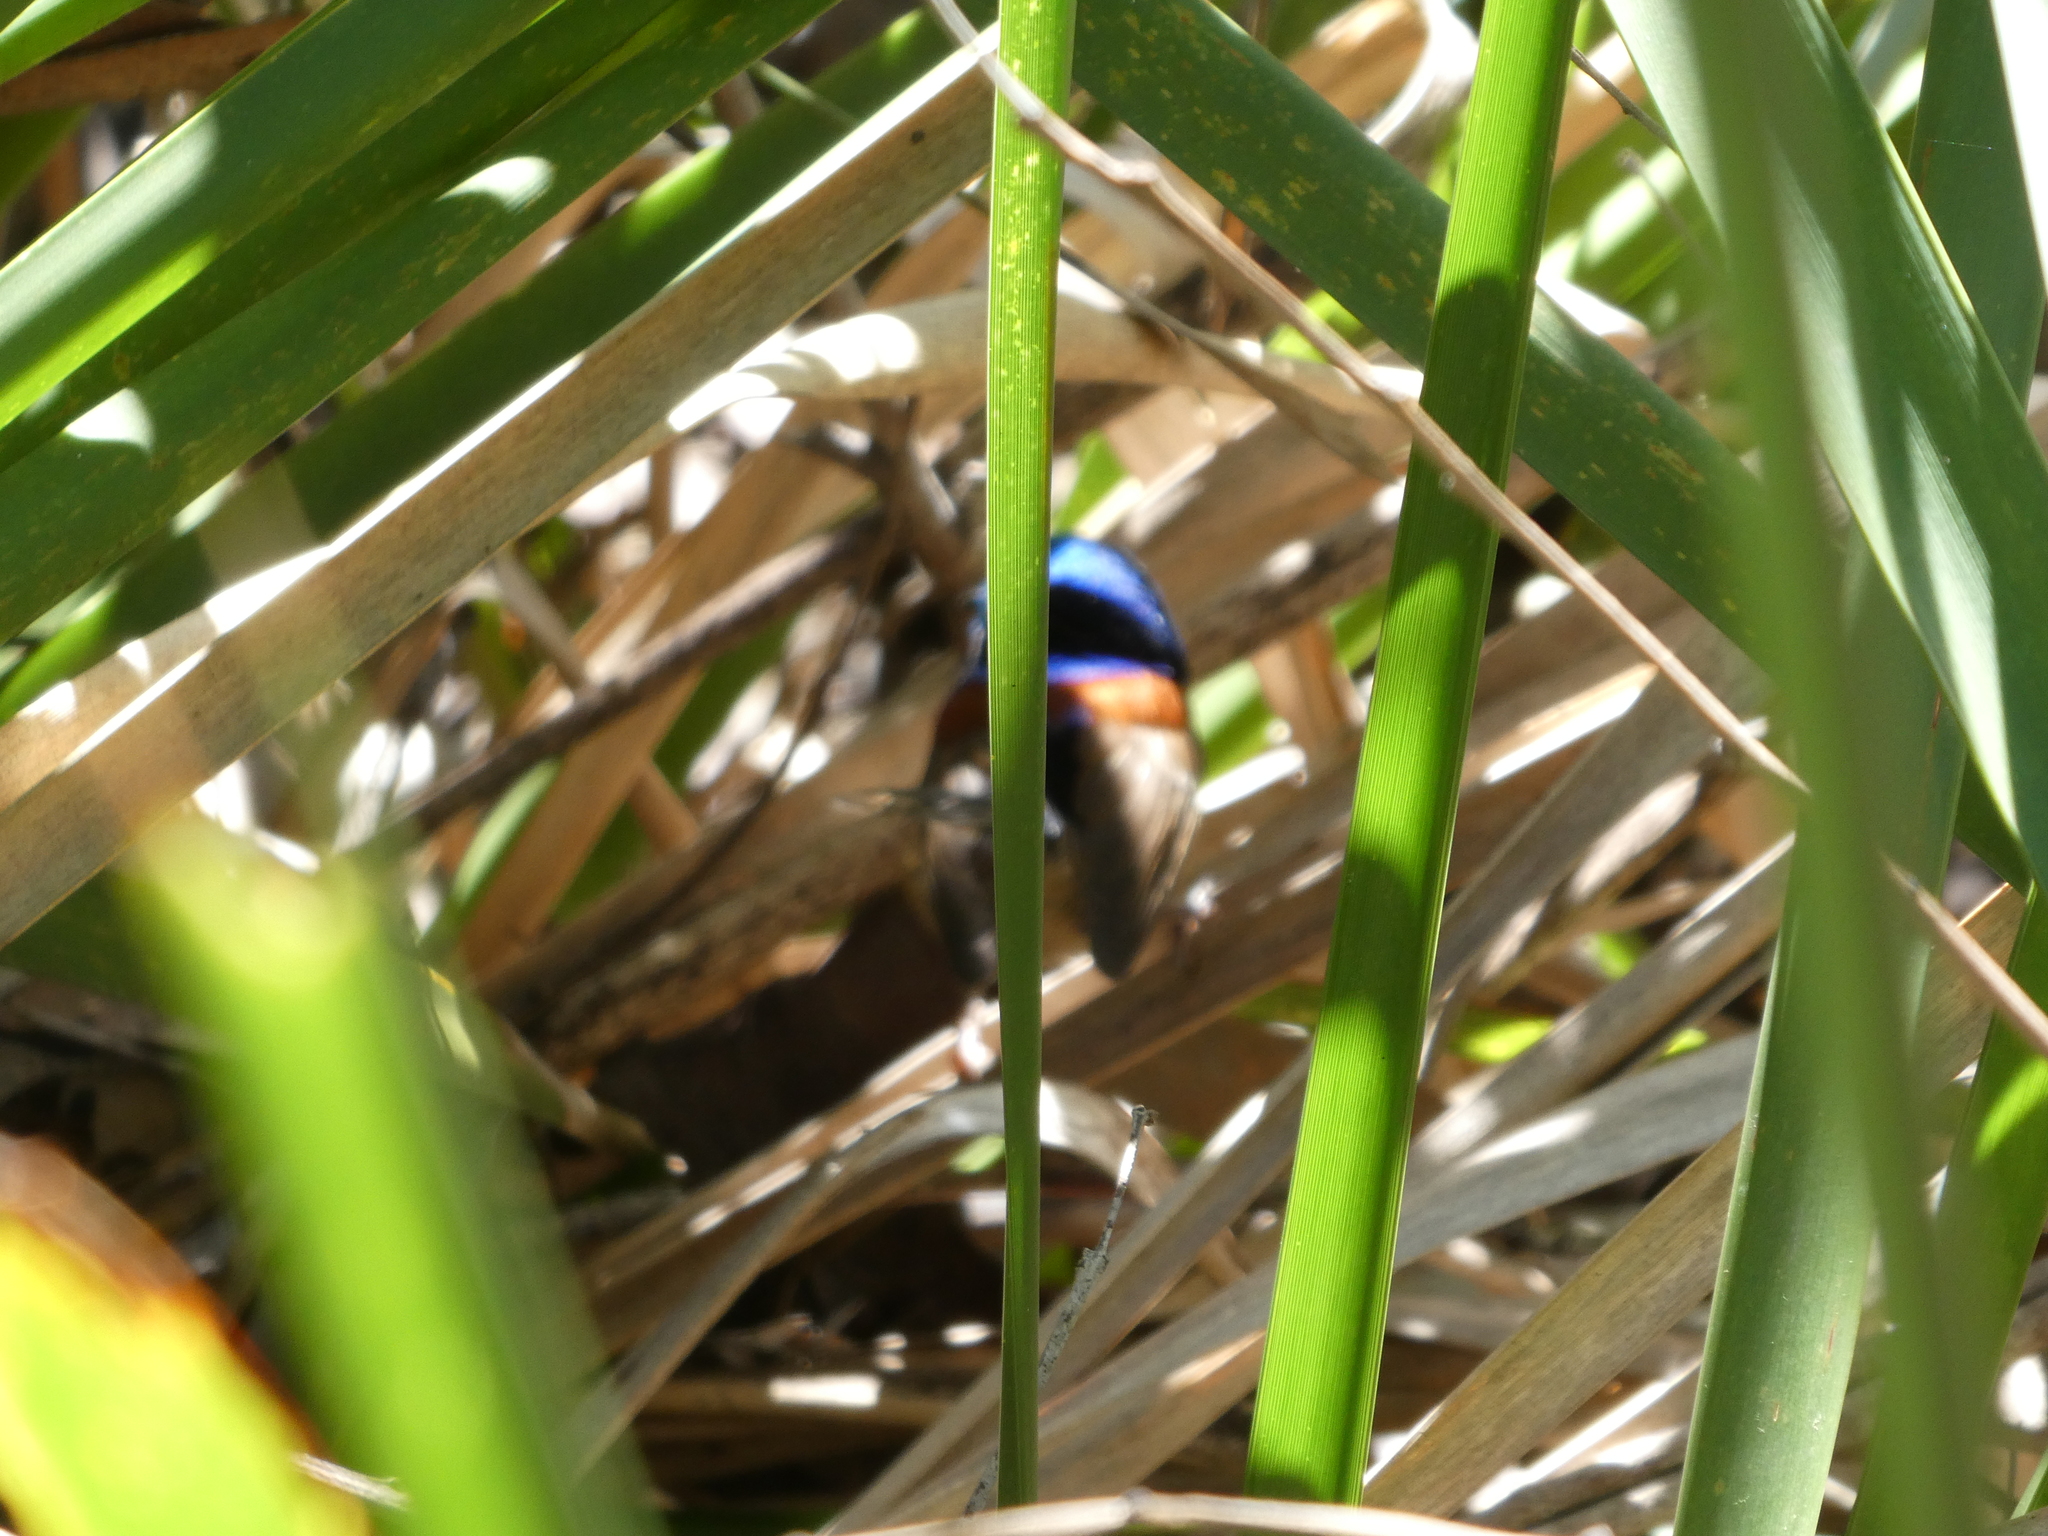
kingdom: Animalia
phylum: Chordata
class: Aves
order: Passeriformes
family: Maluridae
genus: Malurus
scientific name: Malurus lamberti
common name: Variegated fairywren
